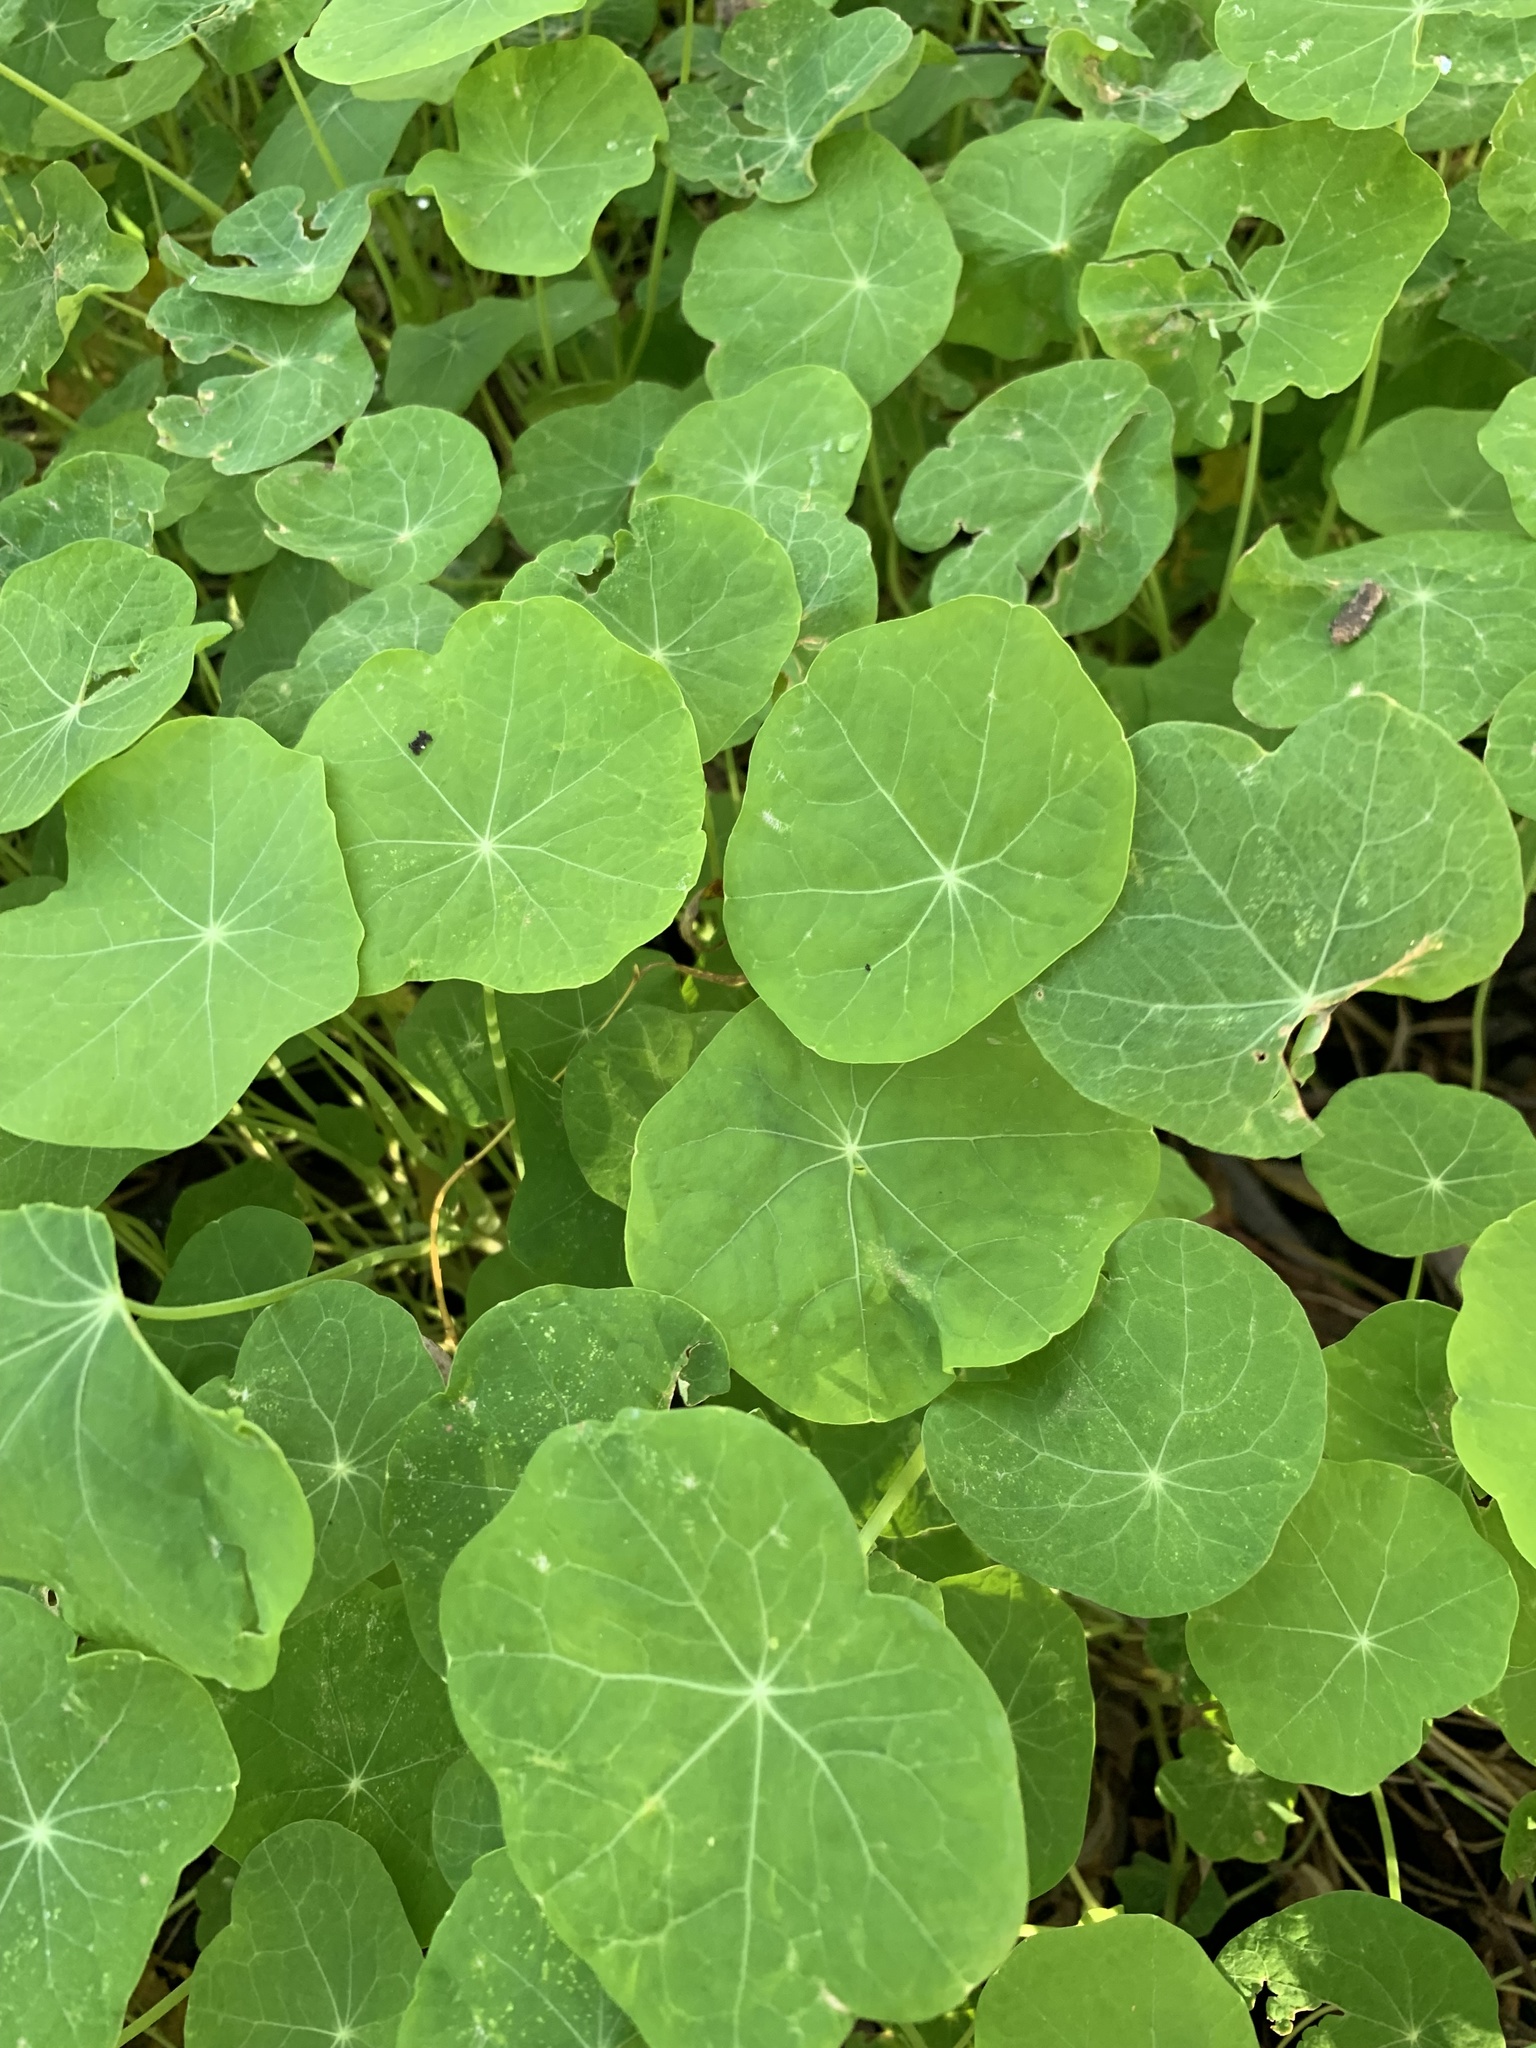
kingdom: Plantae
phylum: Tracheophyta
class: Magnoliopsida
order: Brassicales
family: Tropaeolaceae
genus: Tropaeolum
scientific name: Tropaeolum majus
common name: Nasturtium
